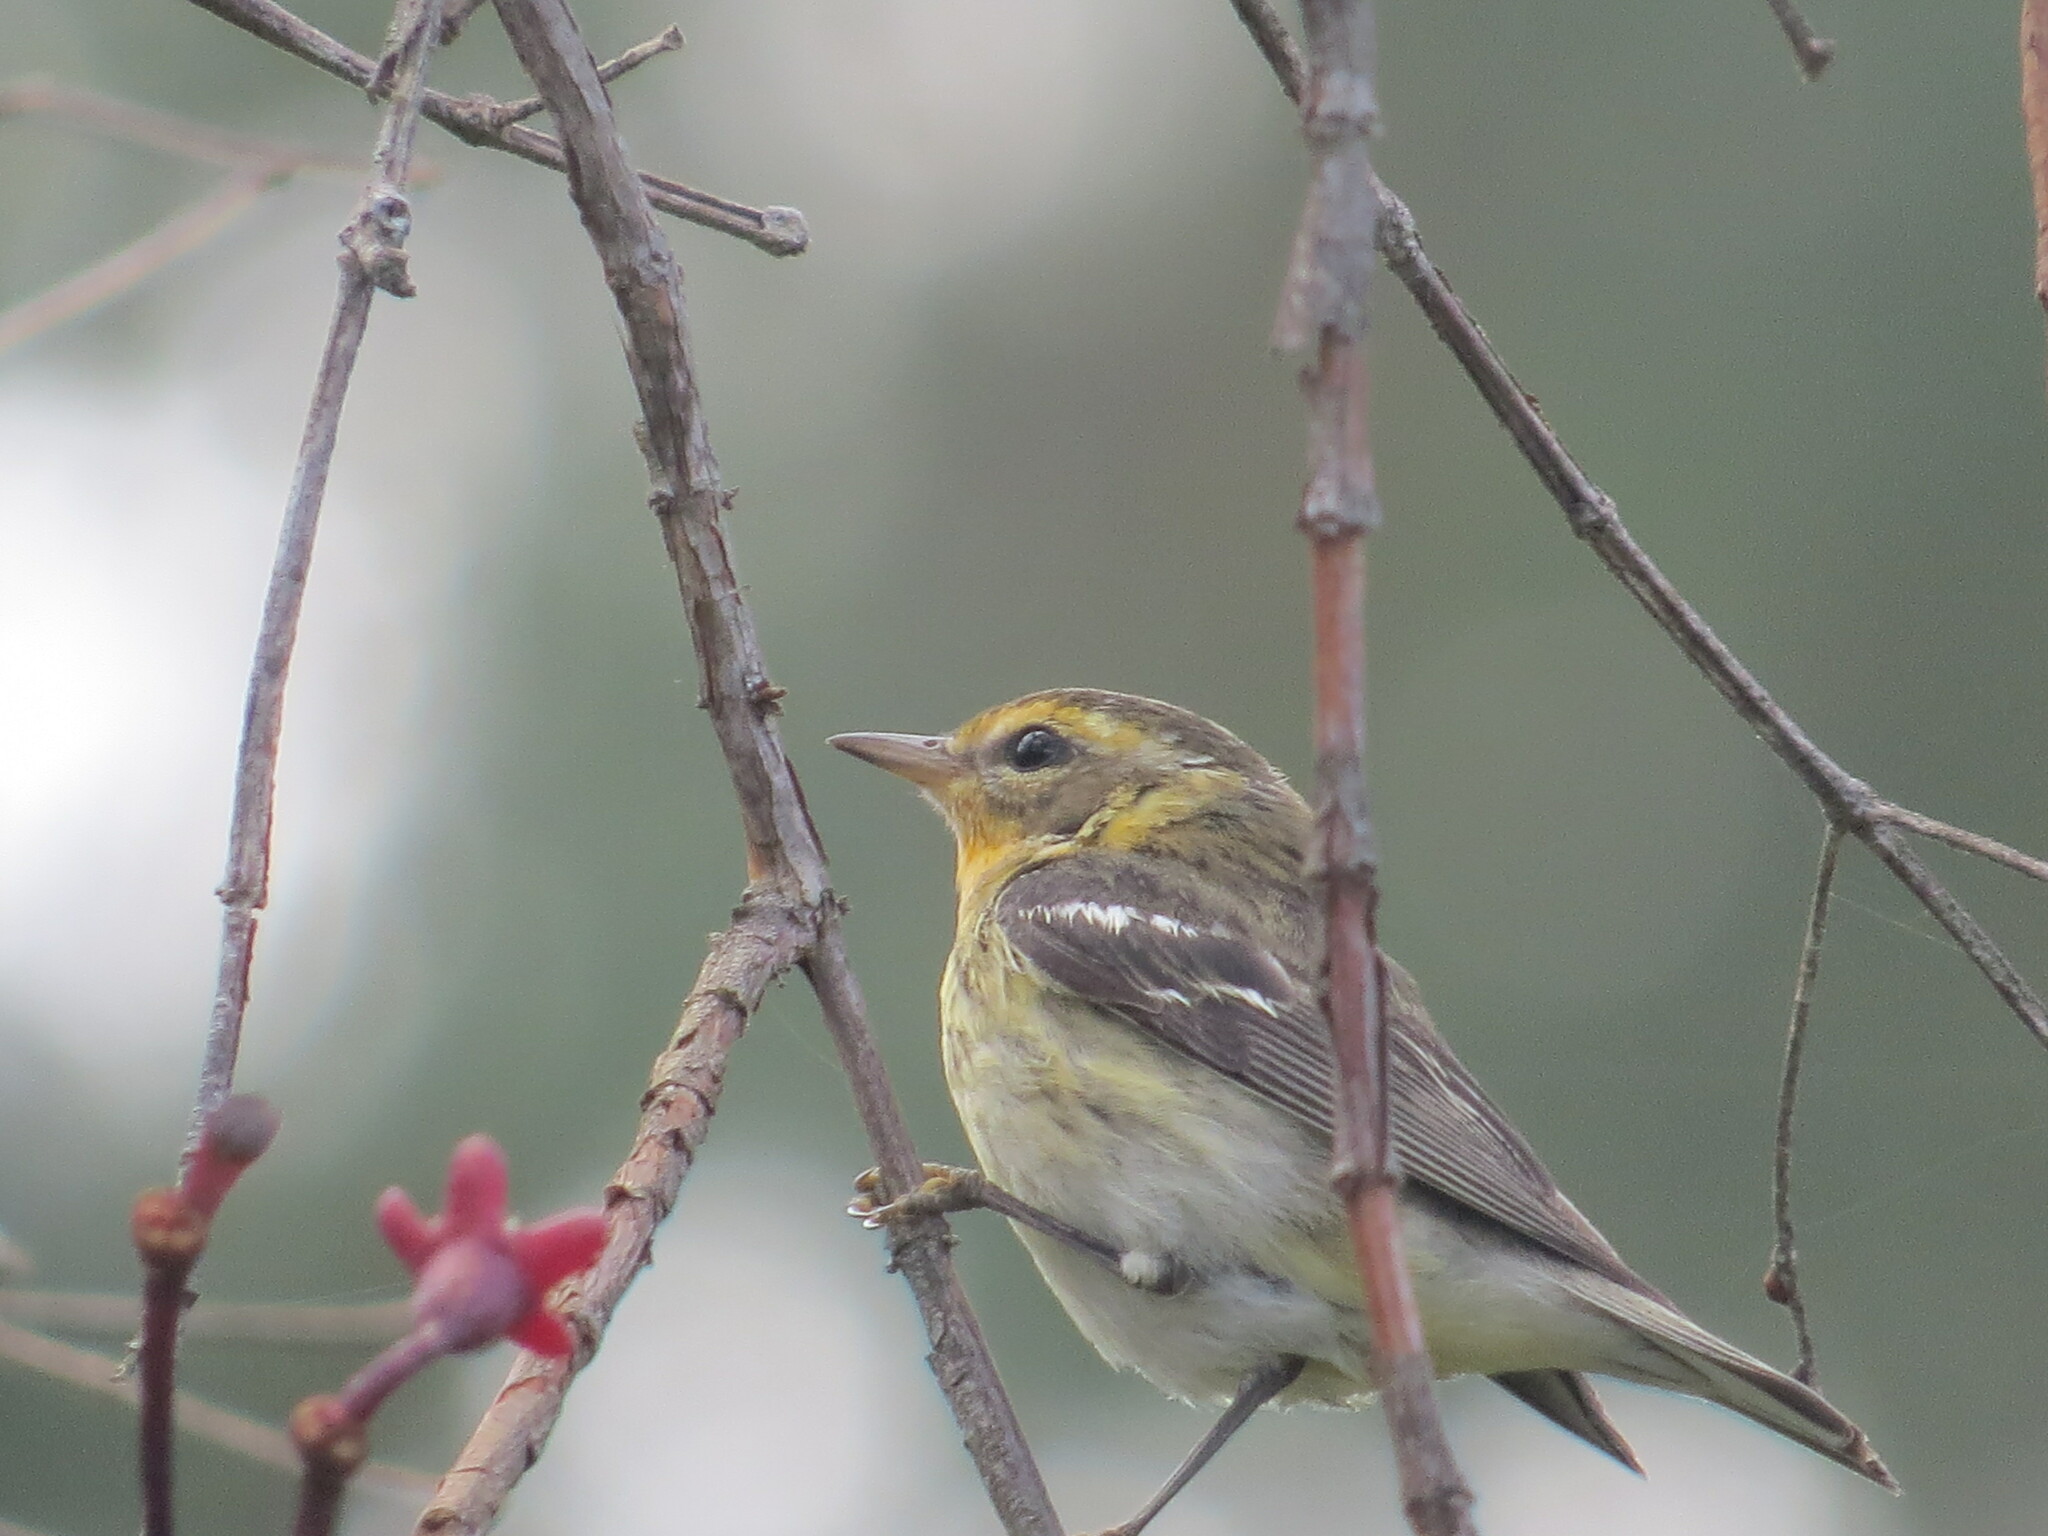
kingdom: Animalia
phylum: Chordata
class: Aves
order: Passeriformes
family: Parulidae
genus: Setophaga
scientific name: Setophaga fusca
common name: Blackburnian warbler
